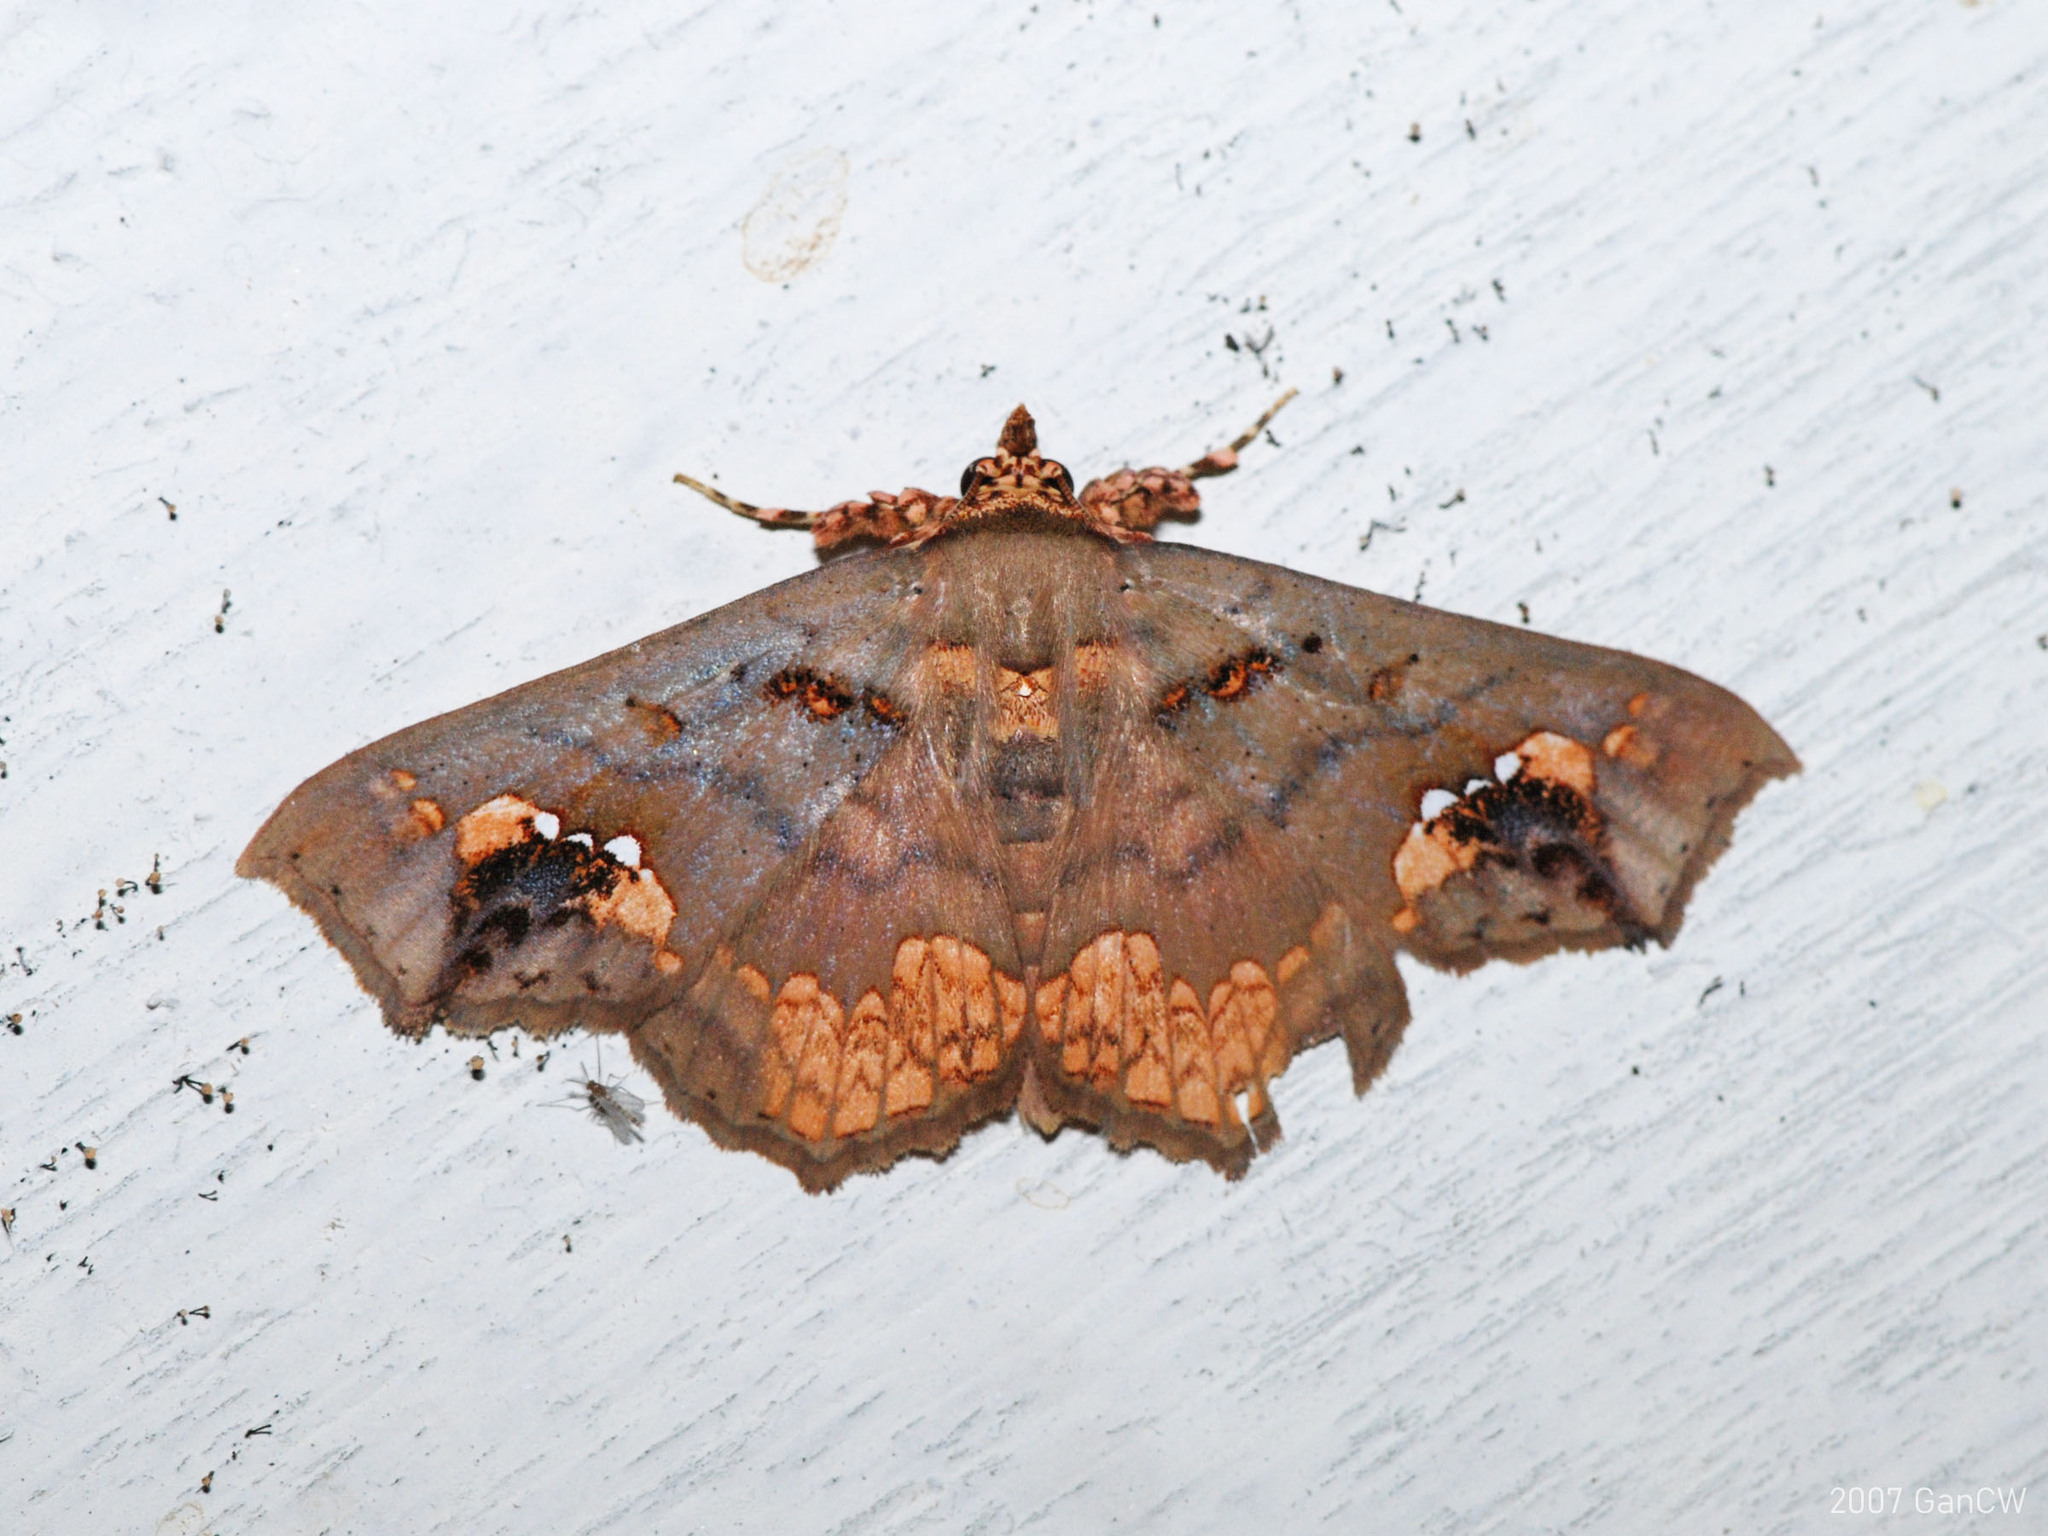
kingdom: Animalia
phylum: Arthropoda
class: Insecta
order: Lepidoptera
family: Erebidae
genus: Lopharthrum
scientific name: Lopharthrum comprimens
